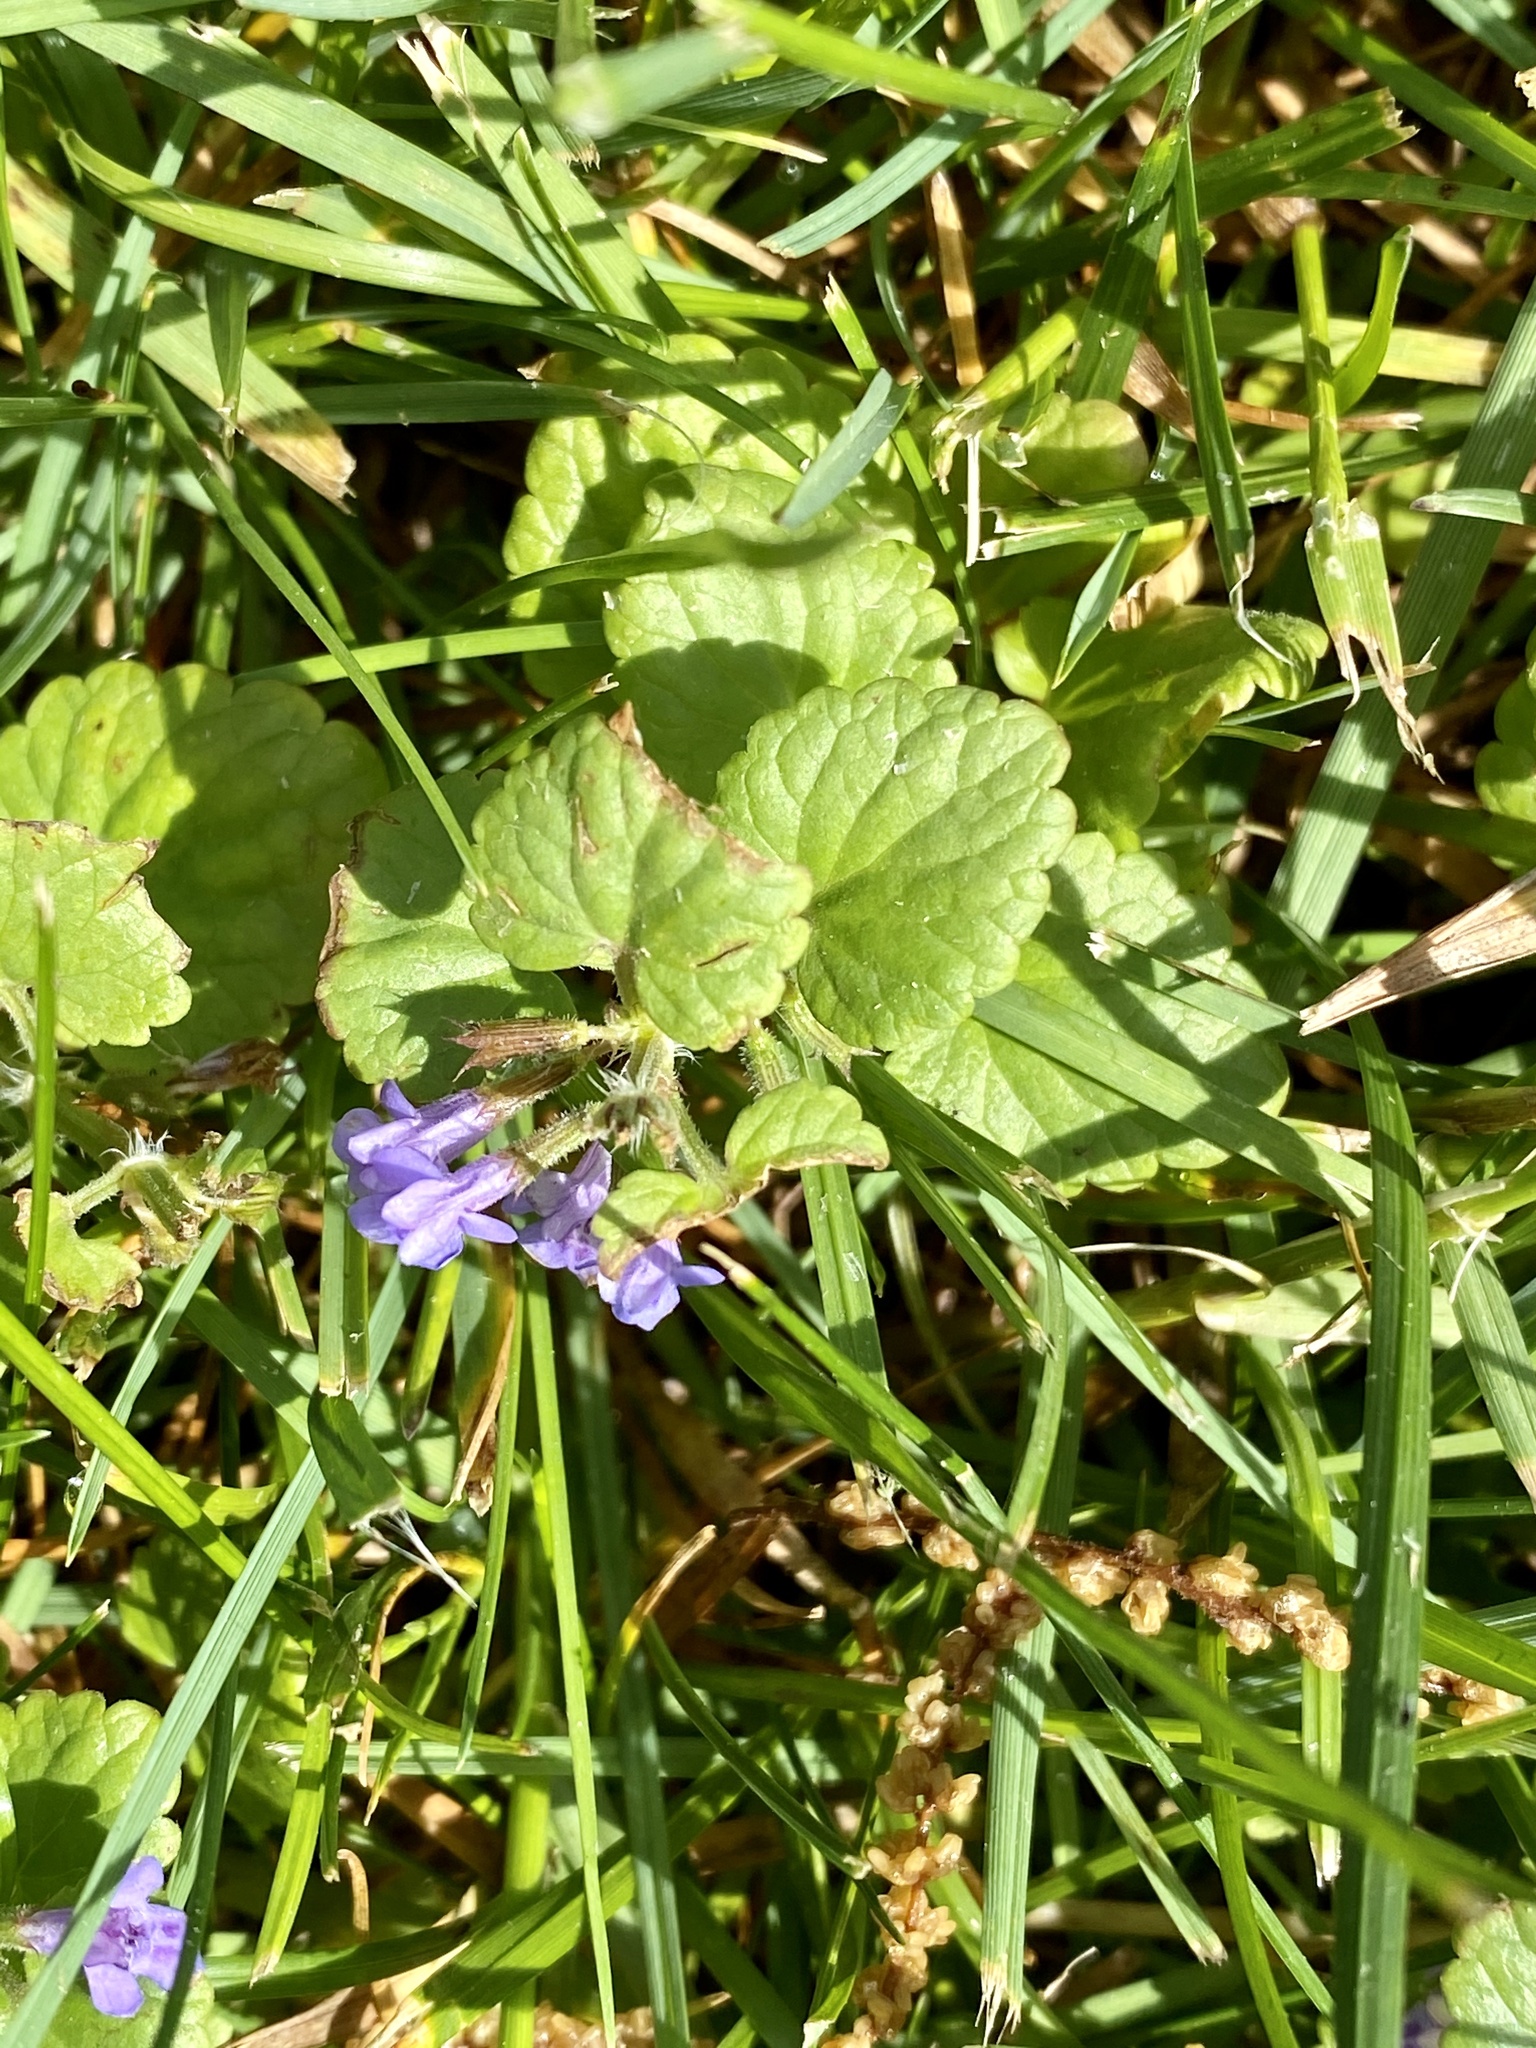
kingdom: Plantae
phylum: Tracheophyta
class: Magnoliopsida
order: Lamiales
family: Lamiaceae
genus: Glechoma
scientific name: Glechoma hederacea
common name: Ground ivy
